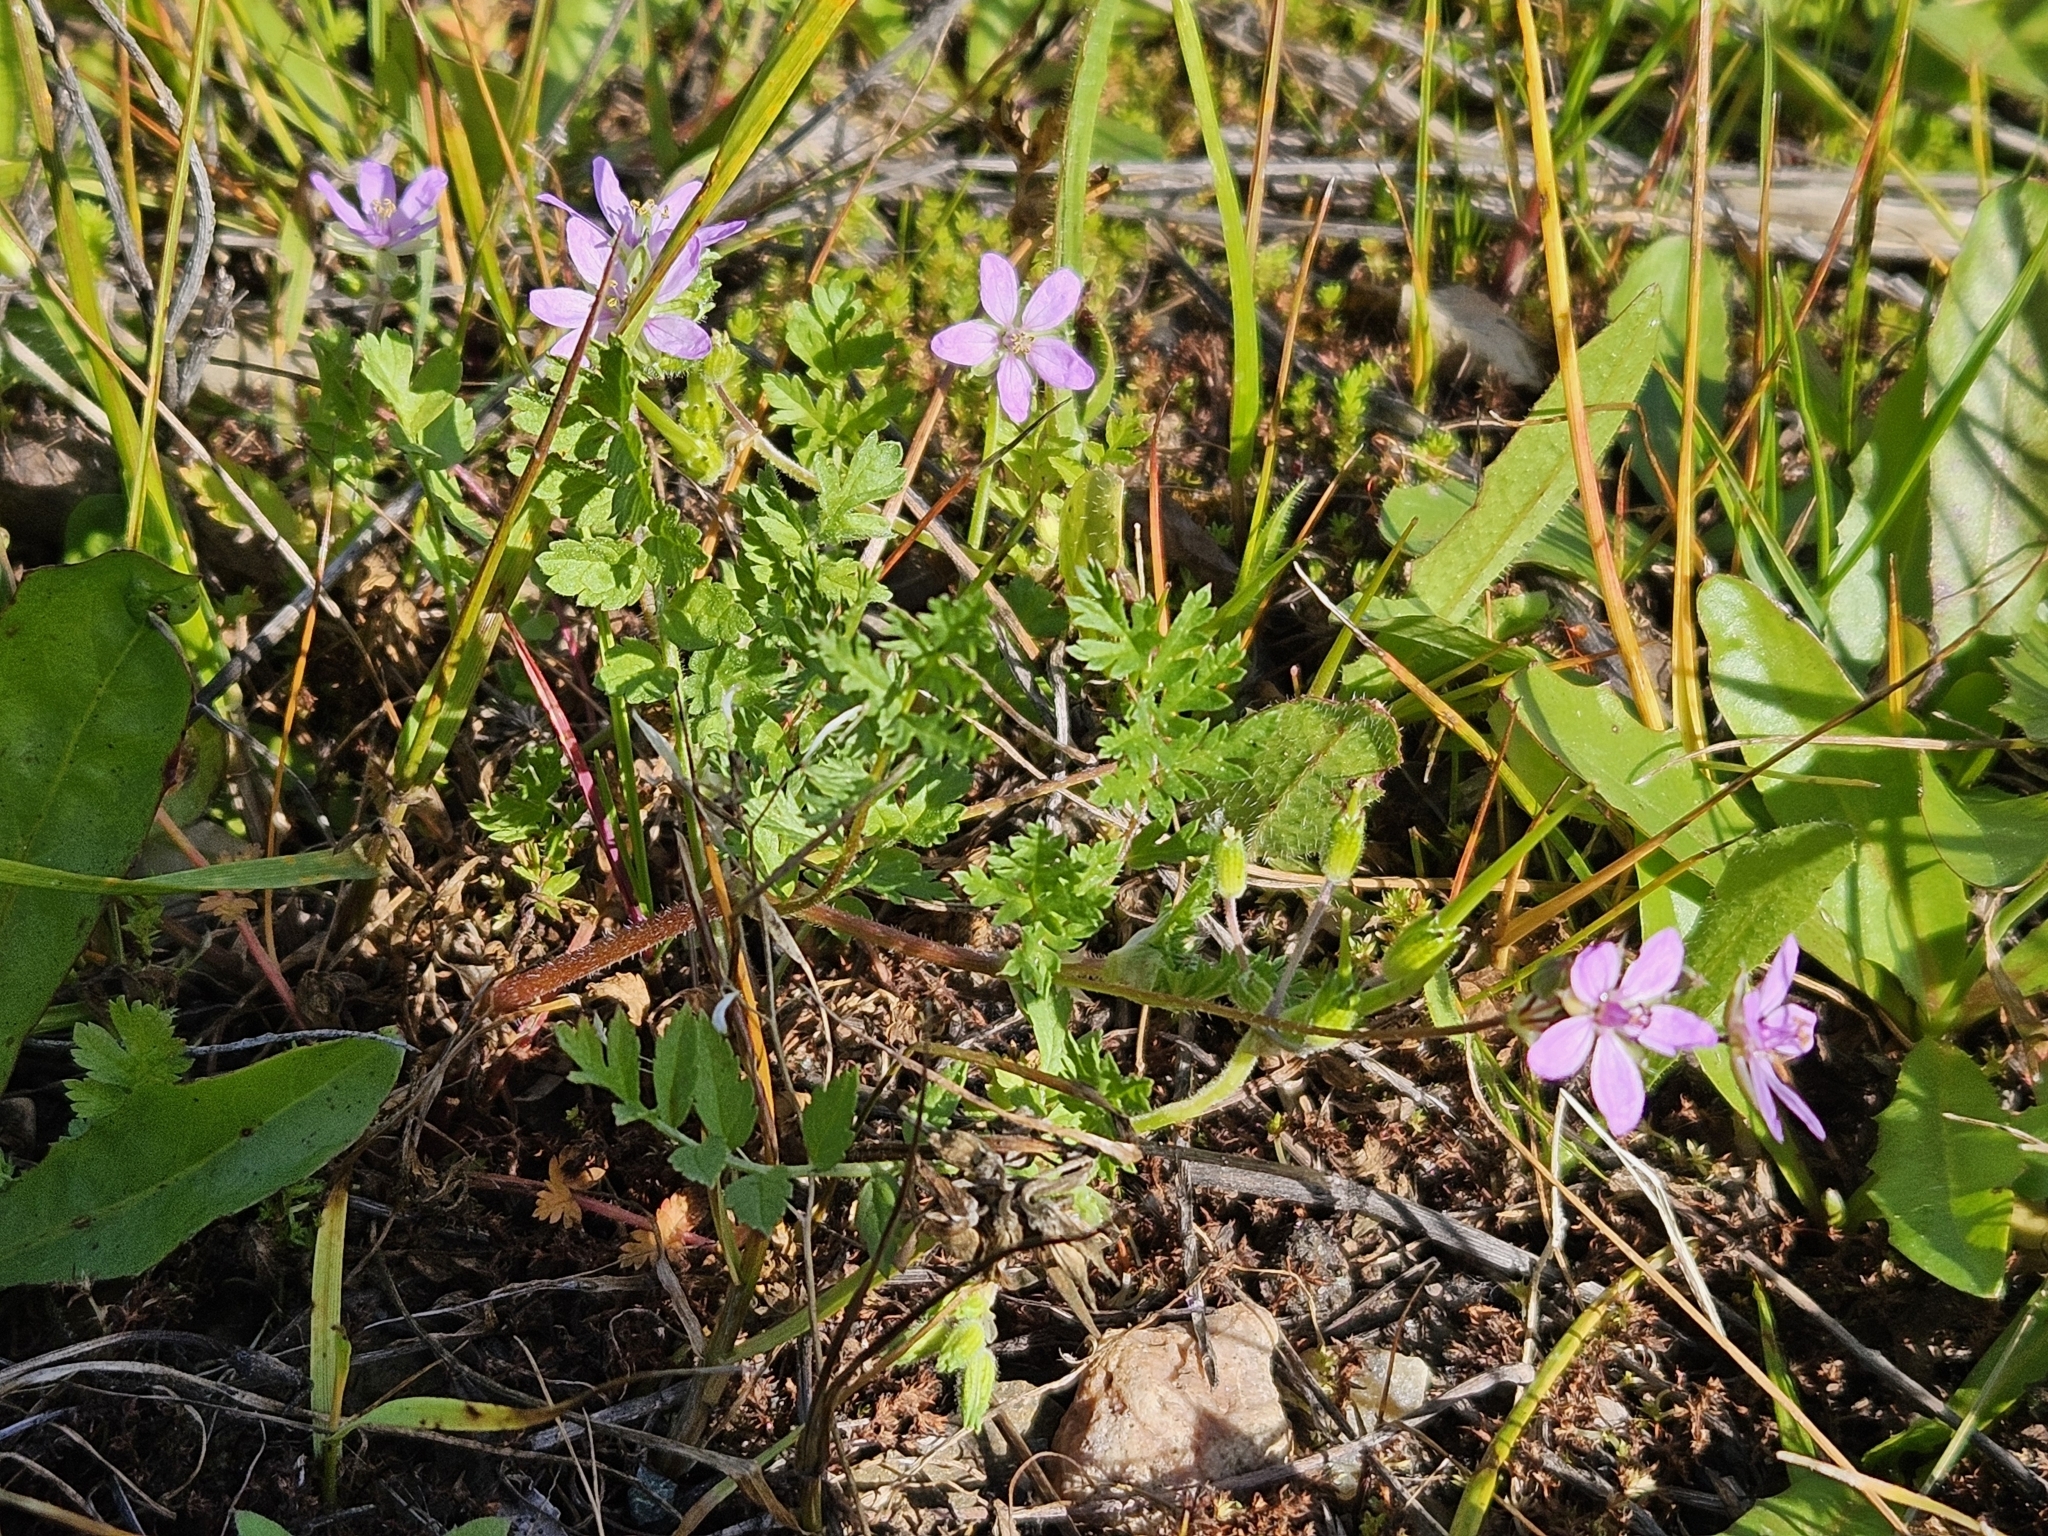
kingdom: Plantae
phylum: Tracheophyta
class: Magnoliopsida
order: Geraniales
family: Geraniaceae
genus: Erodium
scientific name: Erodium cicutarium
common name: Common stork's-bill
